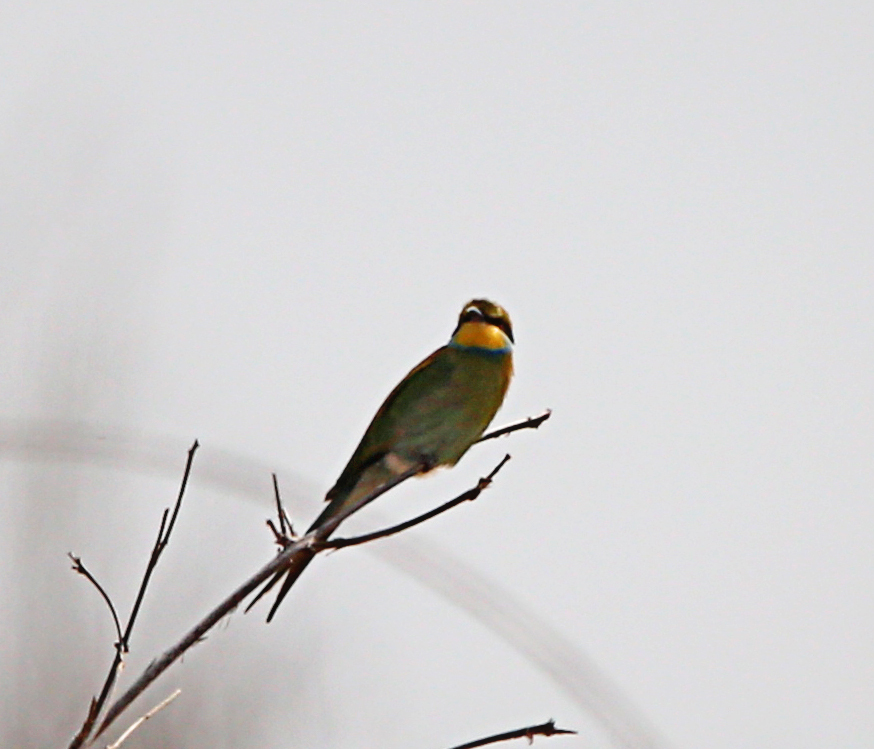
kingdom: Animalia
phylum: Chordata
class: Aves
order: Coraciiformes
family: Meropidae
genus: Merops
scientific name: Merops hirundineus
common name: Swallow-tailed bee-eater
